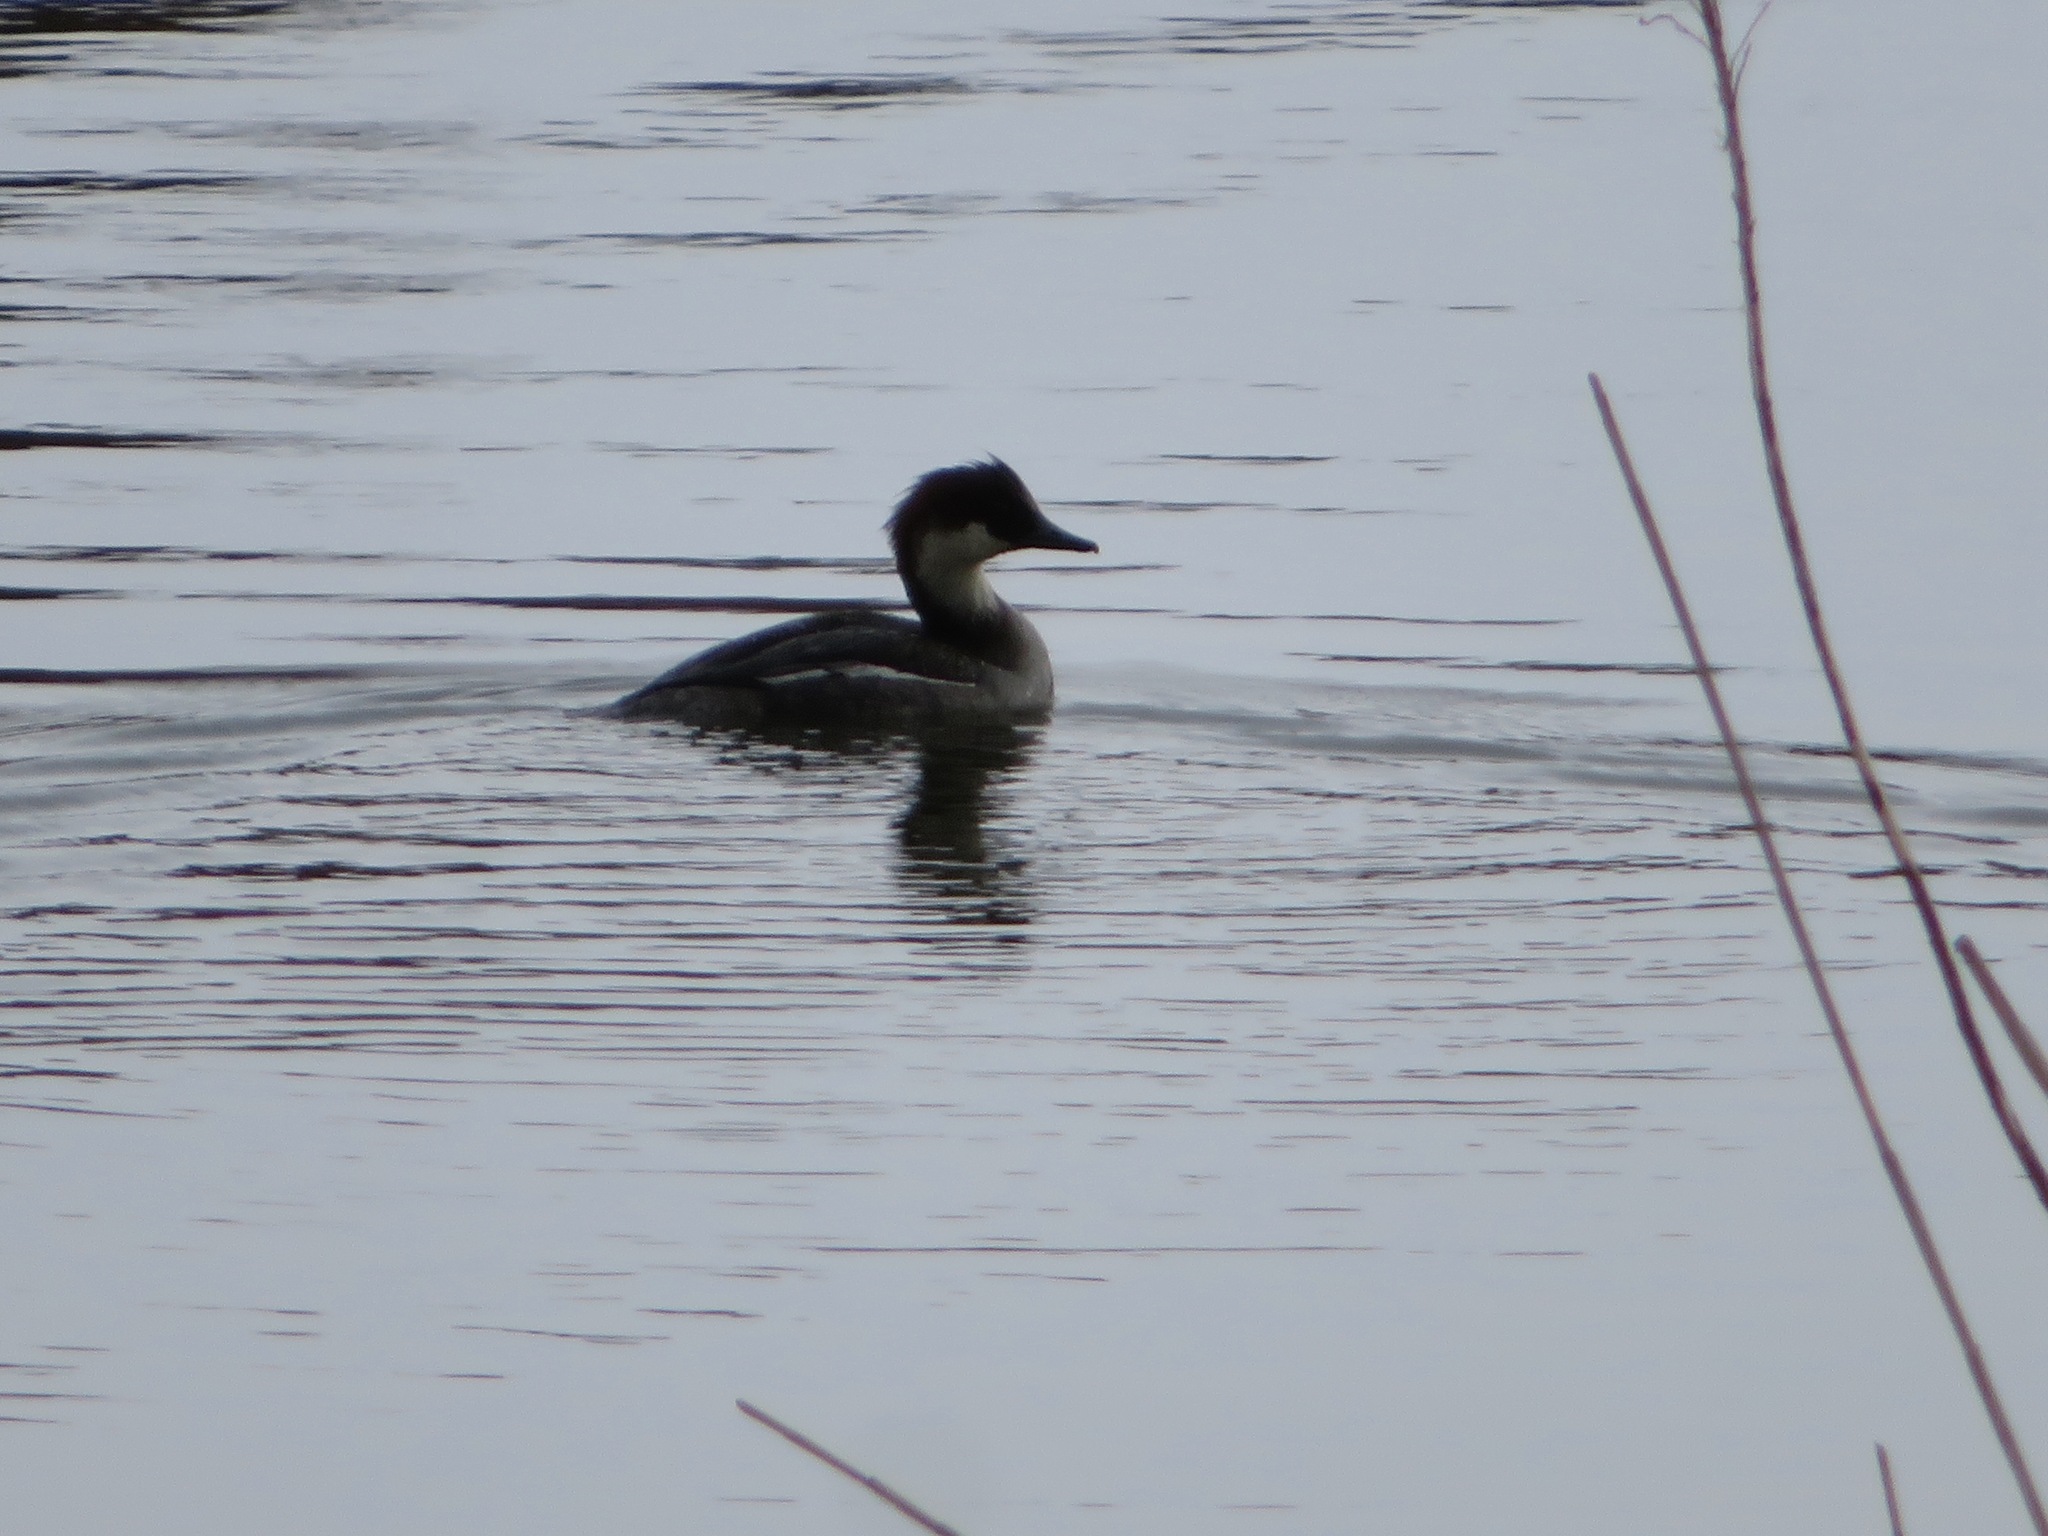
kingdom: Animalia
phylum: Chordata
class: Aves
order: Anseriformes
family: Anatidae
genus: Mergellus
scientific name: Mergellus albellus
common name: Smew
